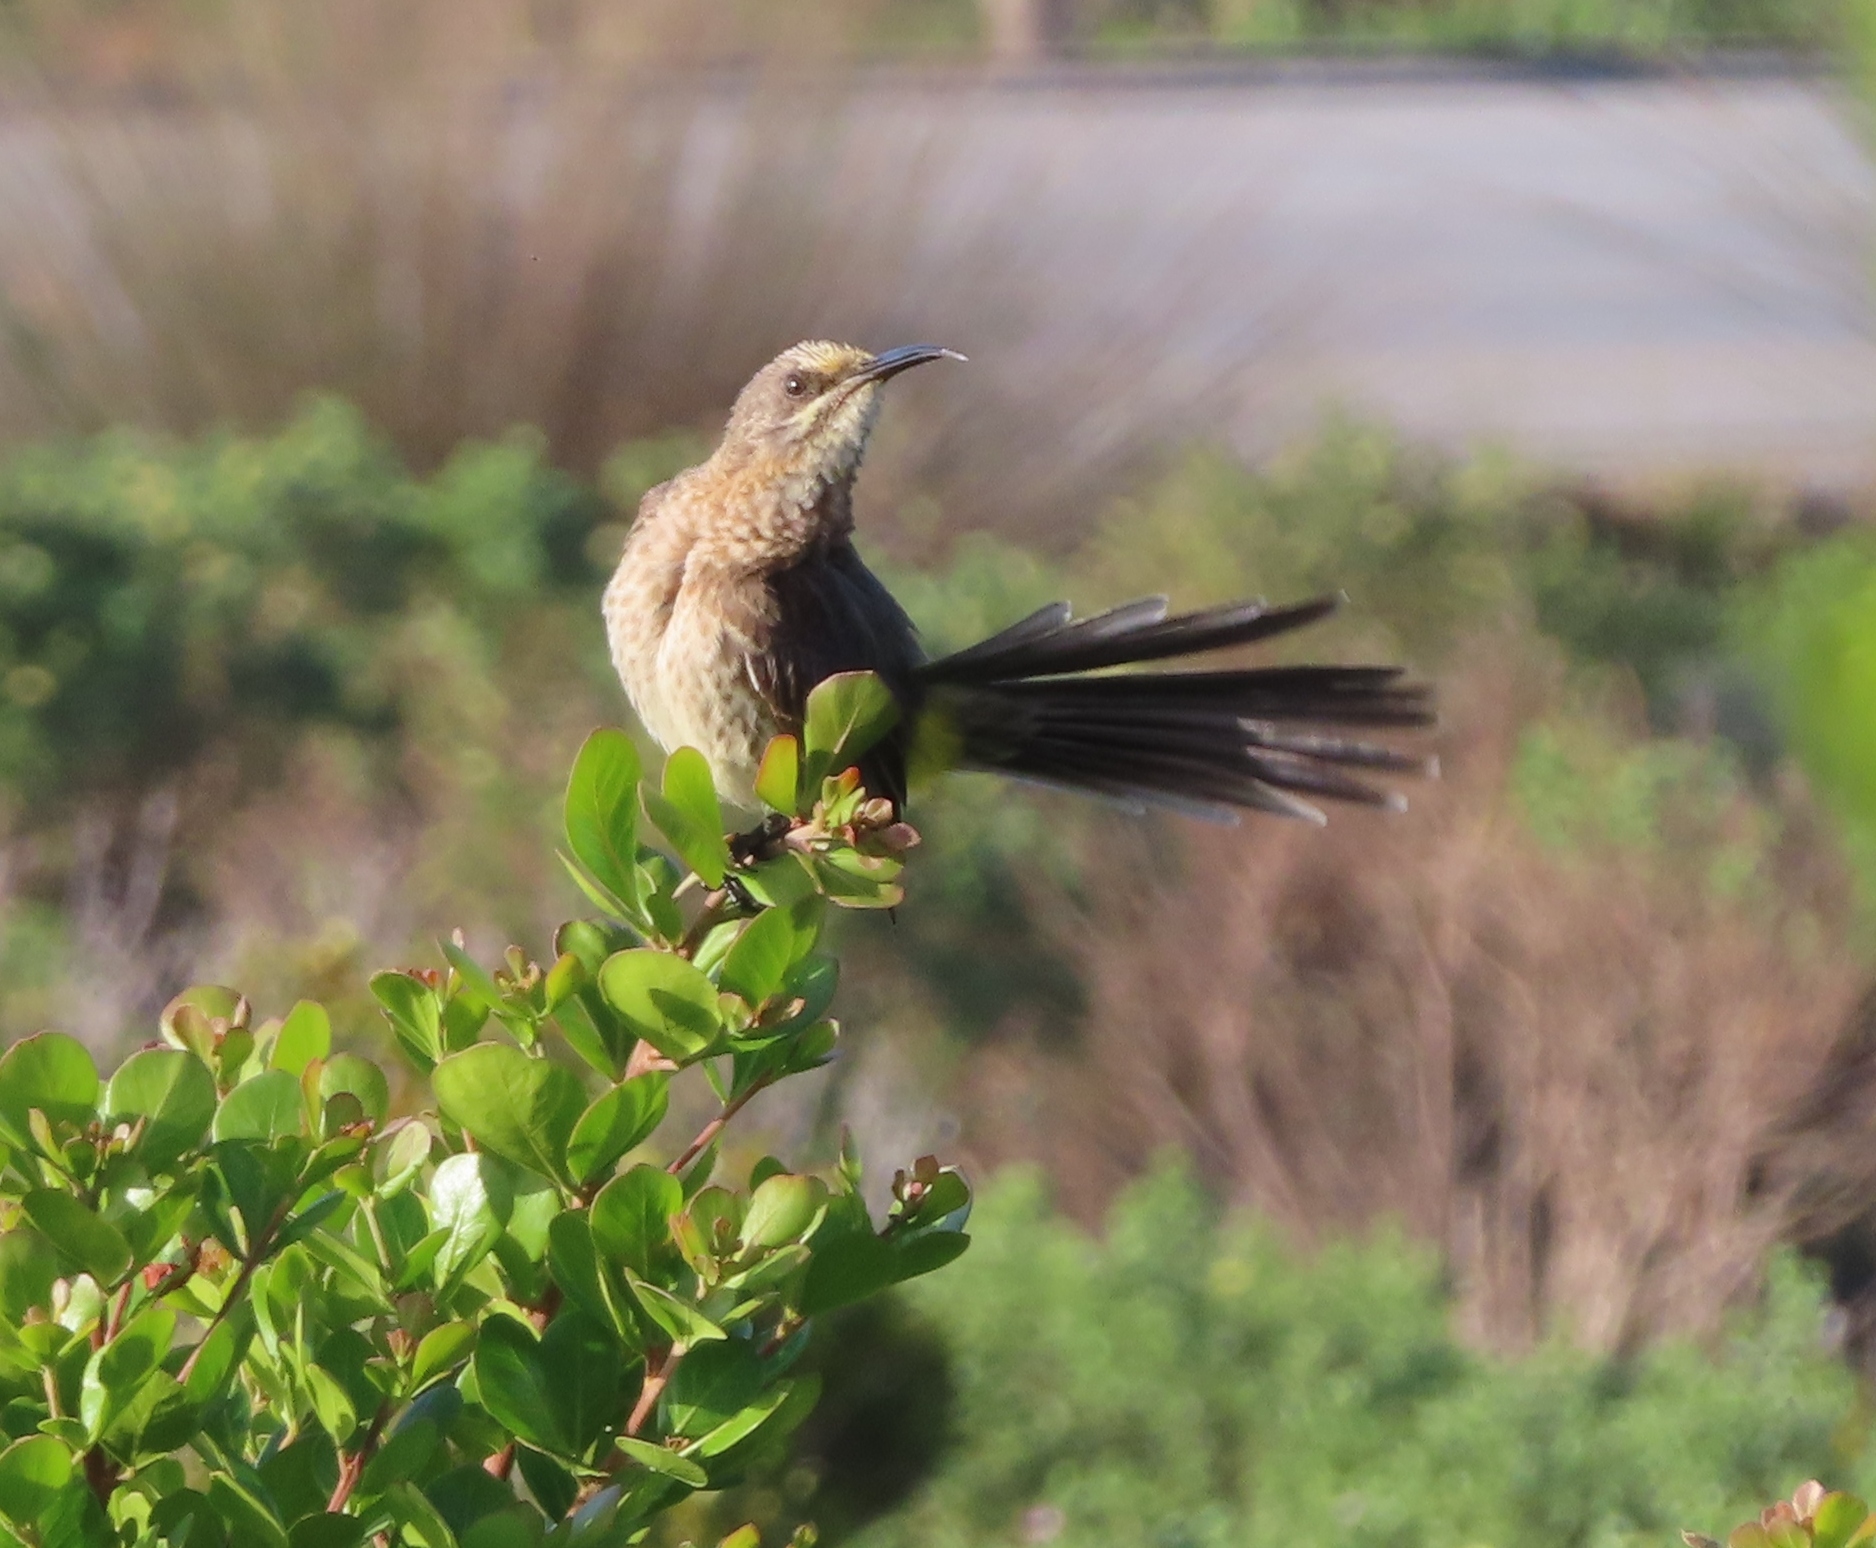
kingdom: Animalia
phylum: Chordata
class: Aves
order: Passeriformes
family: Promeropidae
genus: Promerops
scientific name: Promerops cafer
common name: Cape sugarbird
